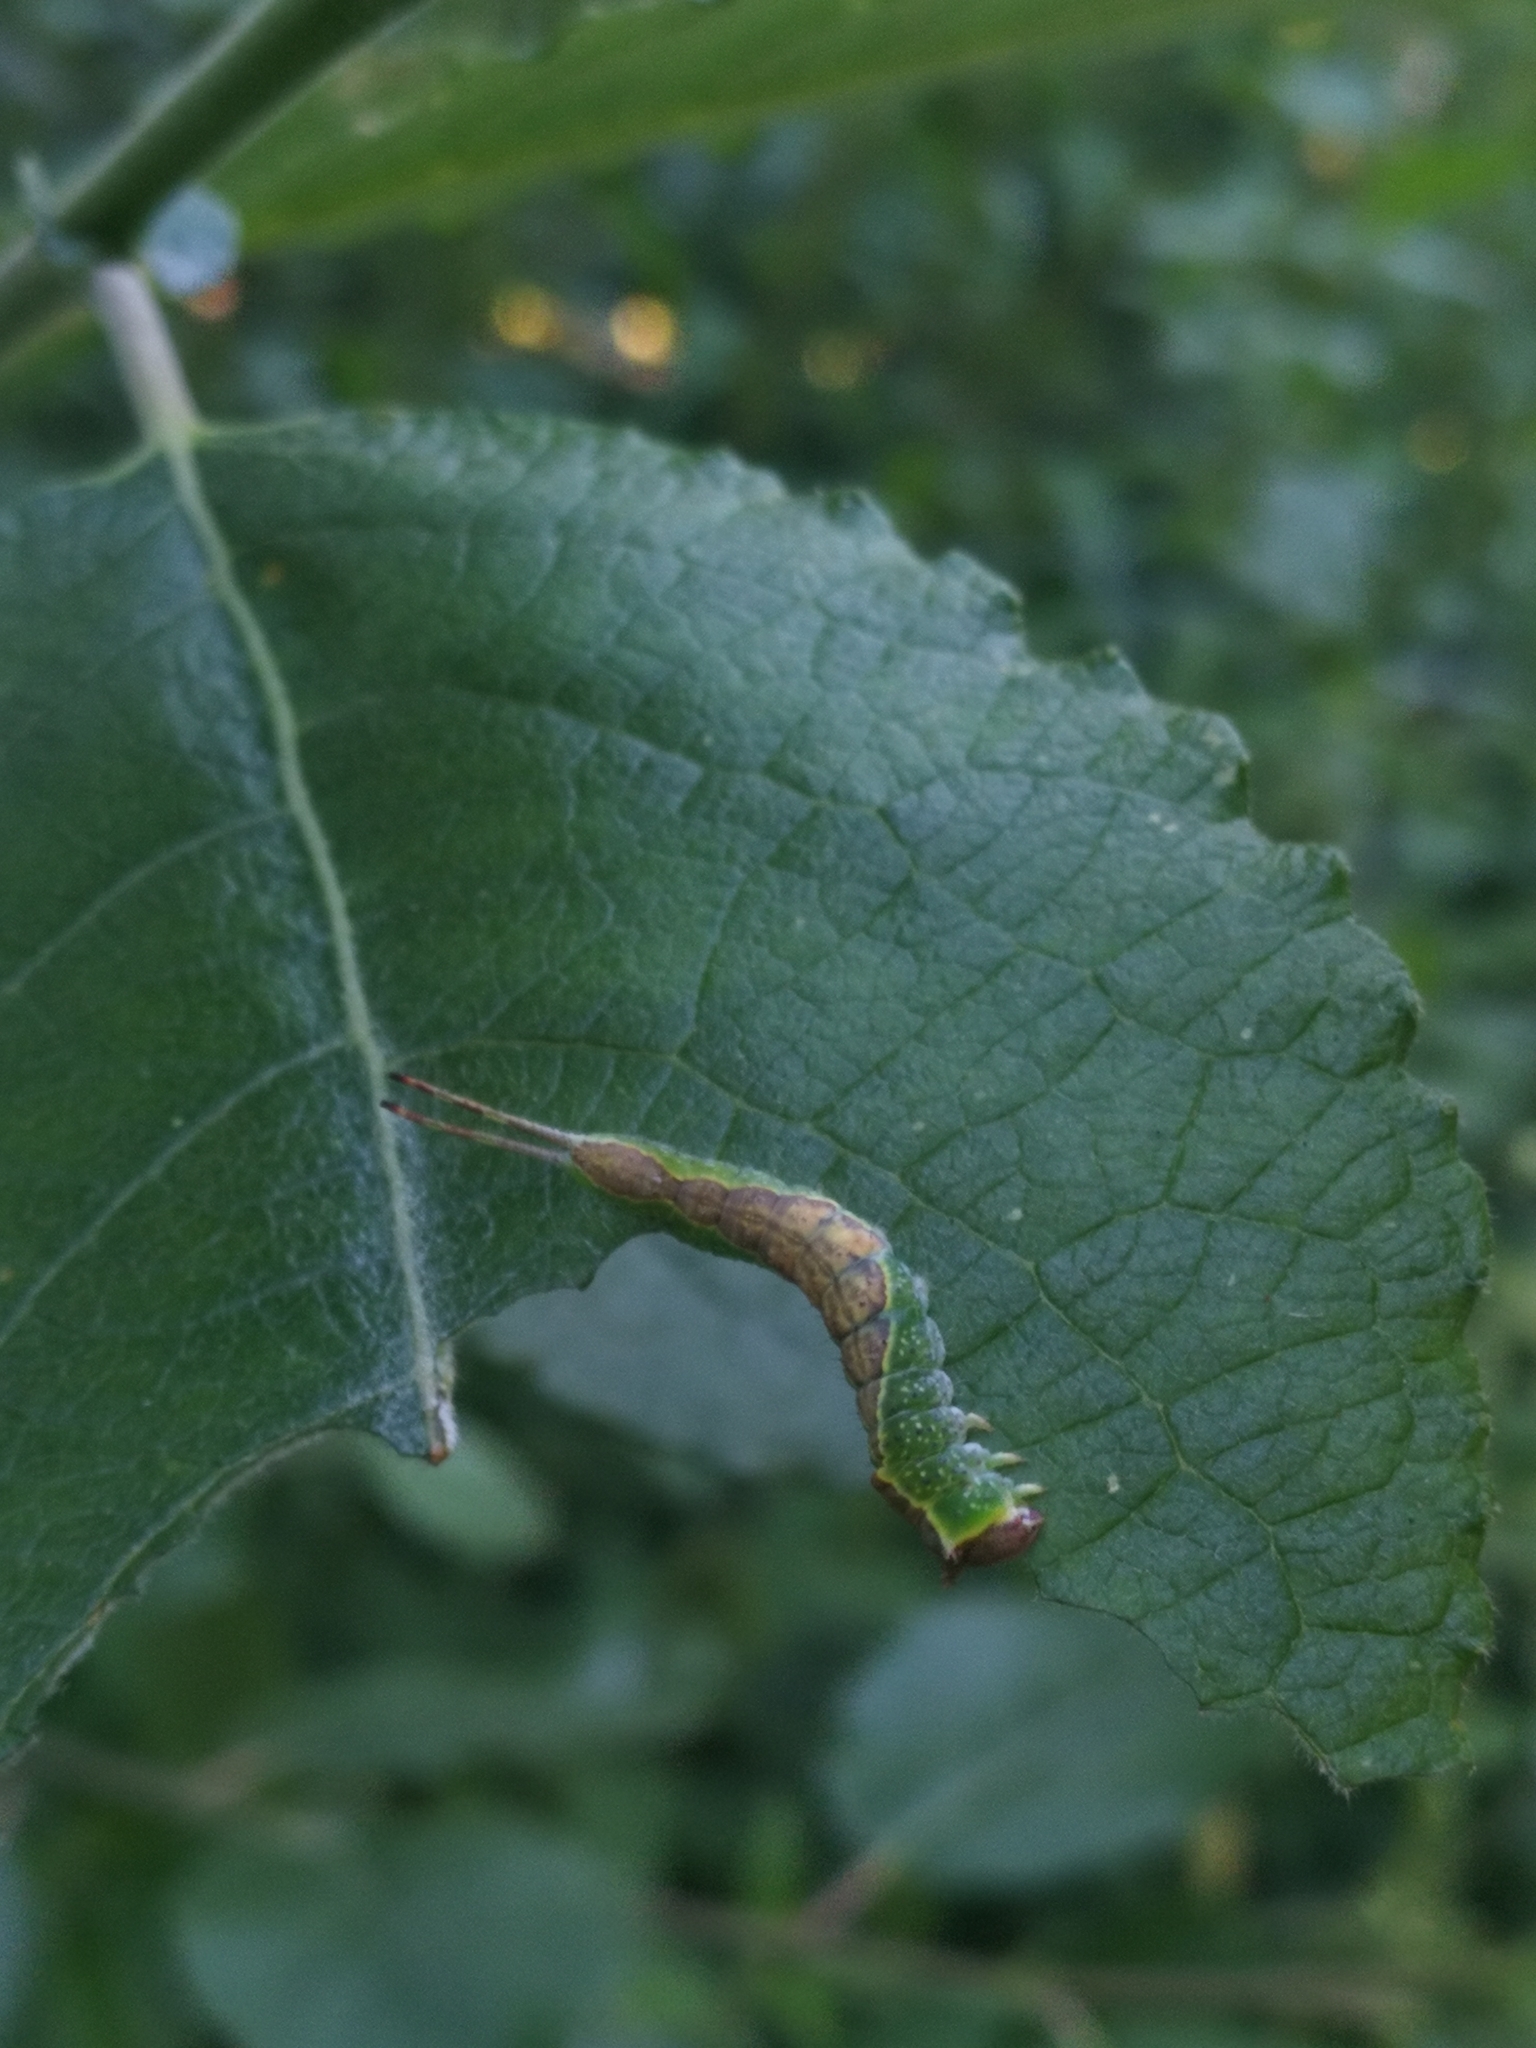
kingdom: Animalia
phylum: Arthropoda
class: Insecta
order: Lepidoptera
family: Notodontidae
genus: Furcula
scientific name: Furcula furcula
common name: Sallow kitten
